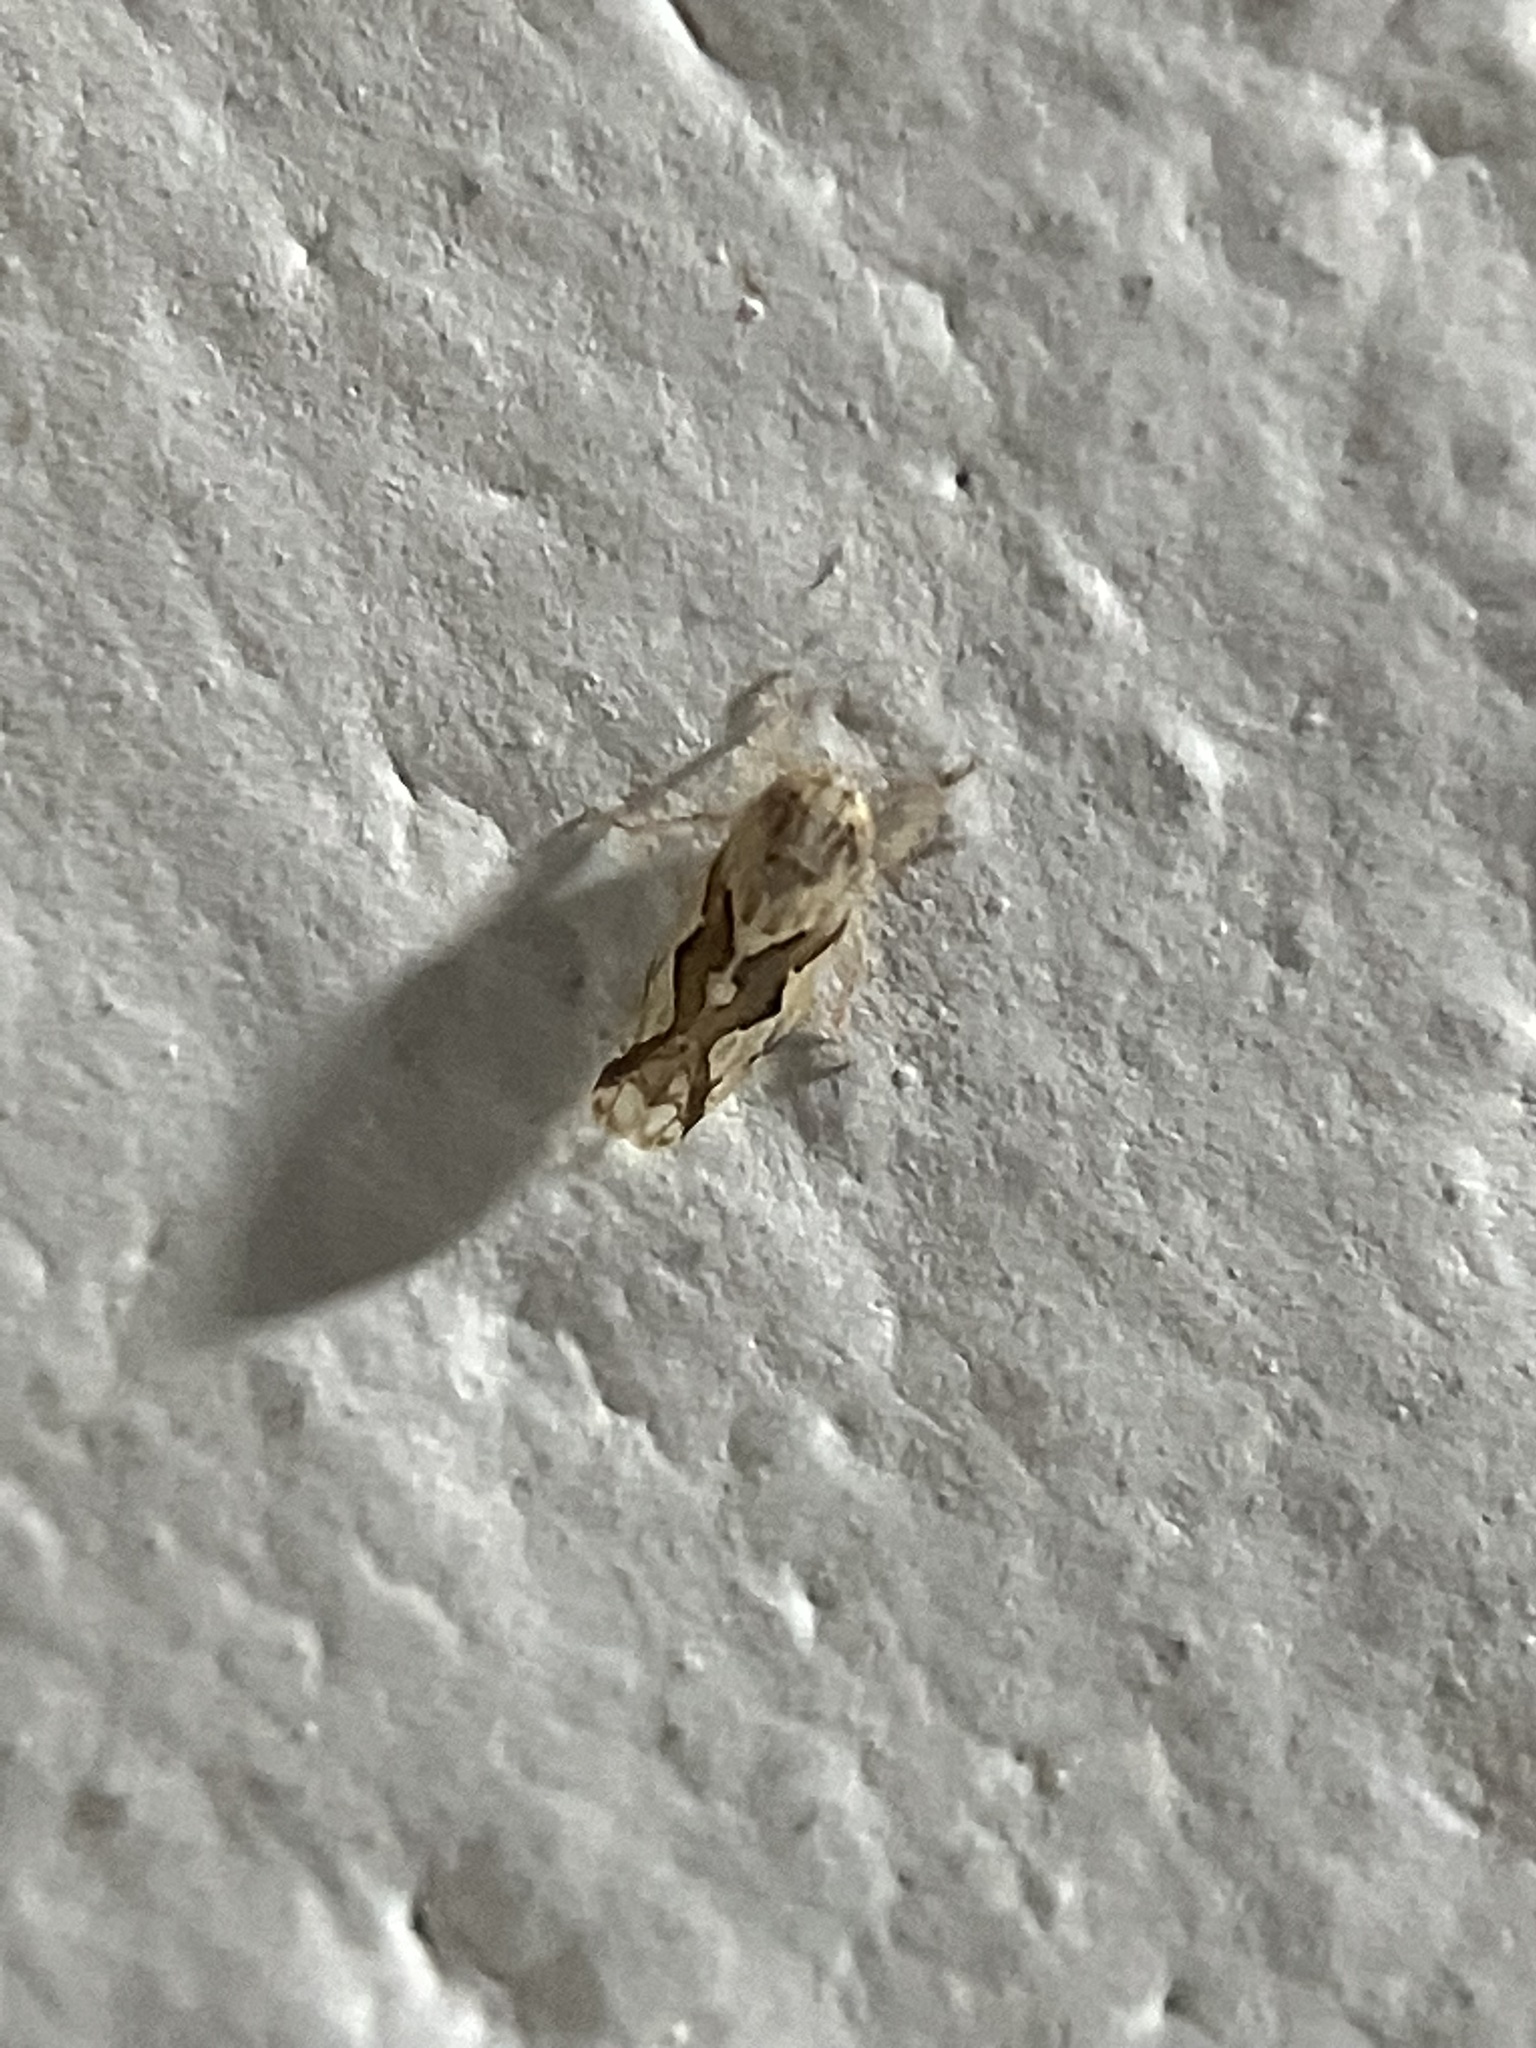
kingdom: Animalia
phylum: Arthropoda
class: Insecta
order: Hemiptera
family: Cicadellidae
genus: Maiestas
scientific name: Maiestas dorsalis
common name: Zig-zag leafhopper
